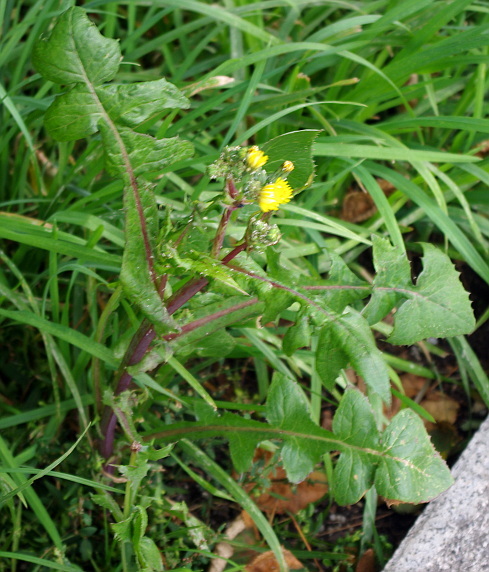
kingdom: Plantae
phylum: Tracheophyta
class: Magnoliopsida
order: Asterales
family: Asteraceae
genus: Sonchus
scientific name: Sonchus oleraceus
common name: Common sowthistle
